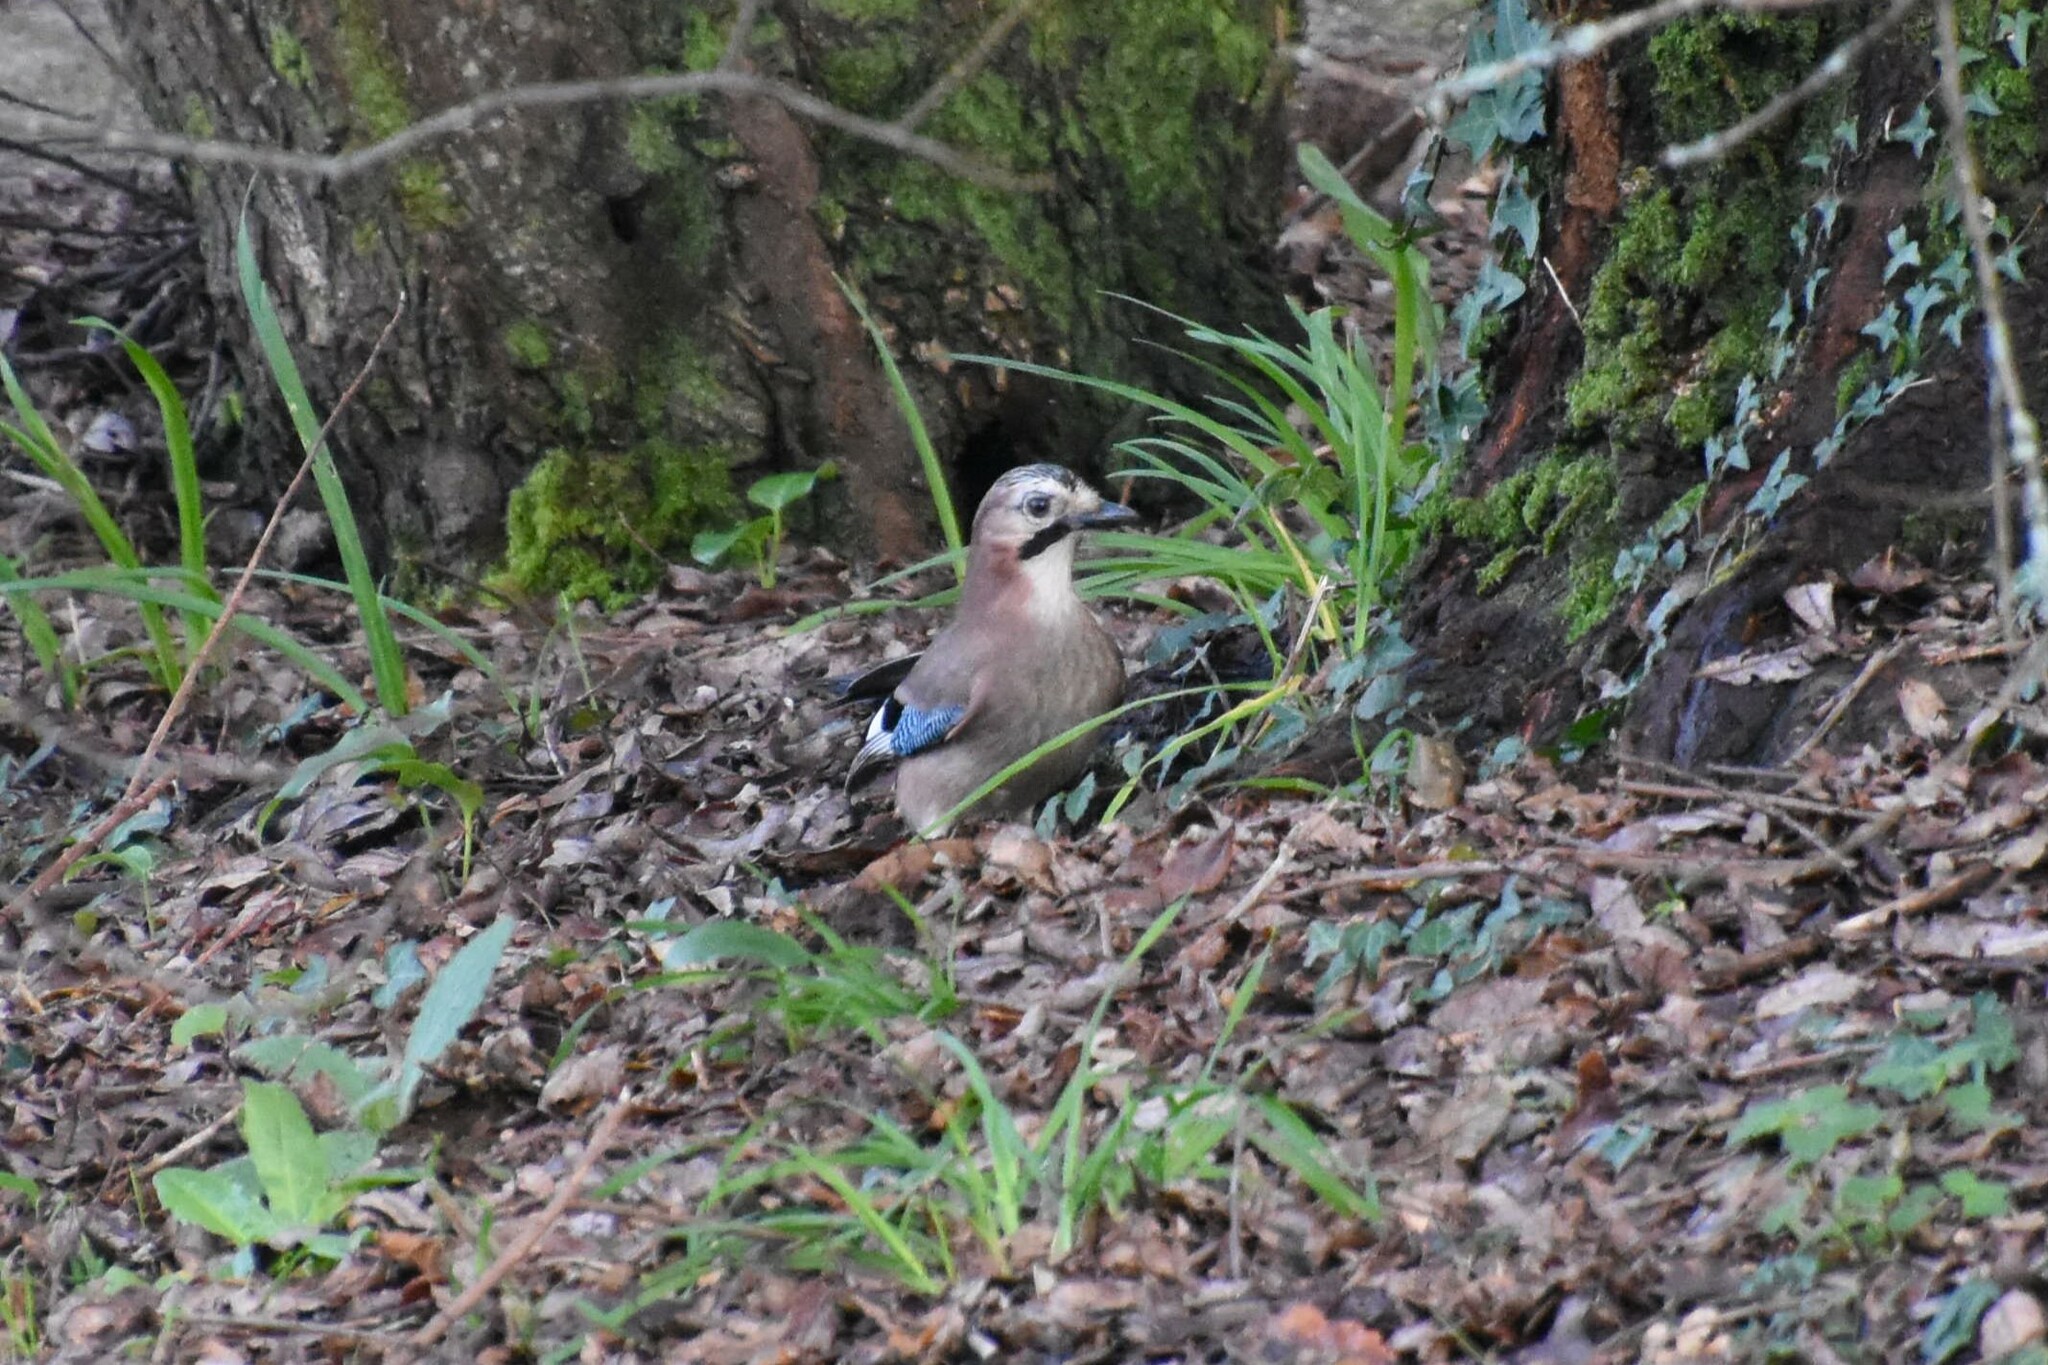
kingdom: Animalia
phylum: Chordata
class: Aves
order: Passeriformes
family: Corvidae
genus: Garrulus
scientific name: Garrulus glandarius
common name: Eurasian jay
